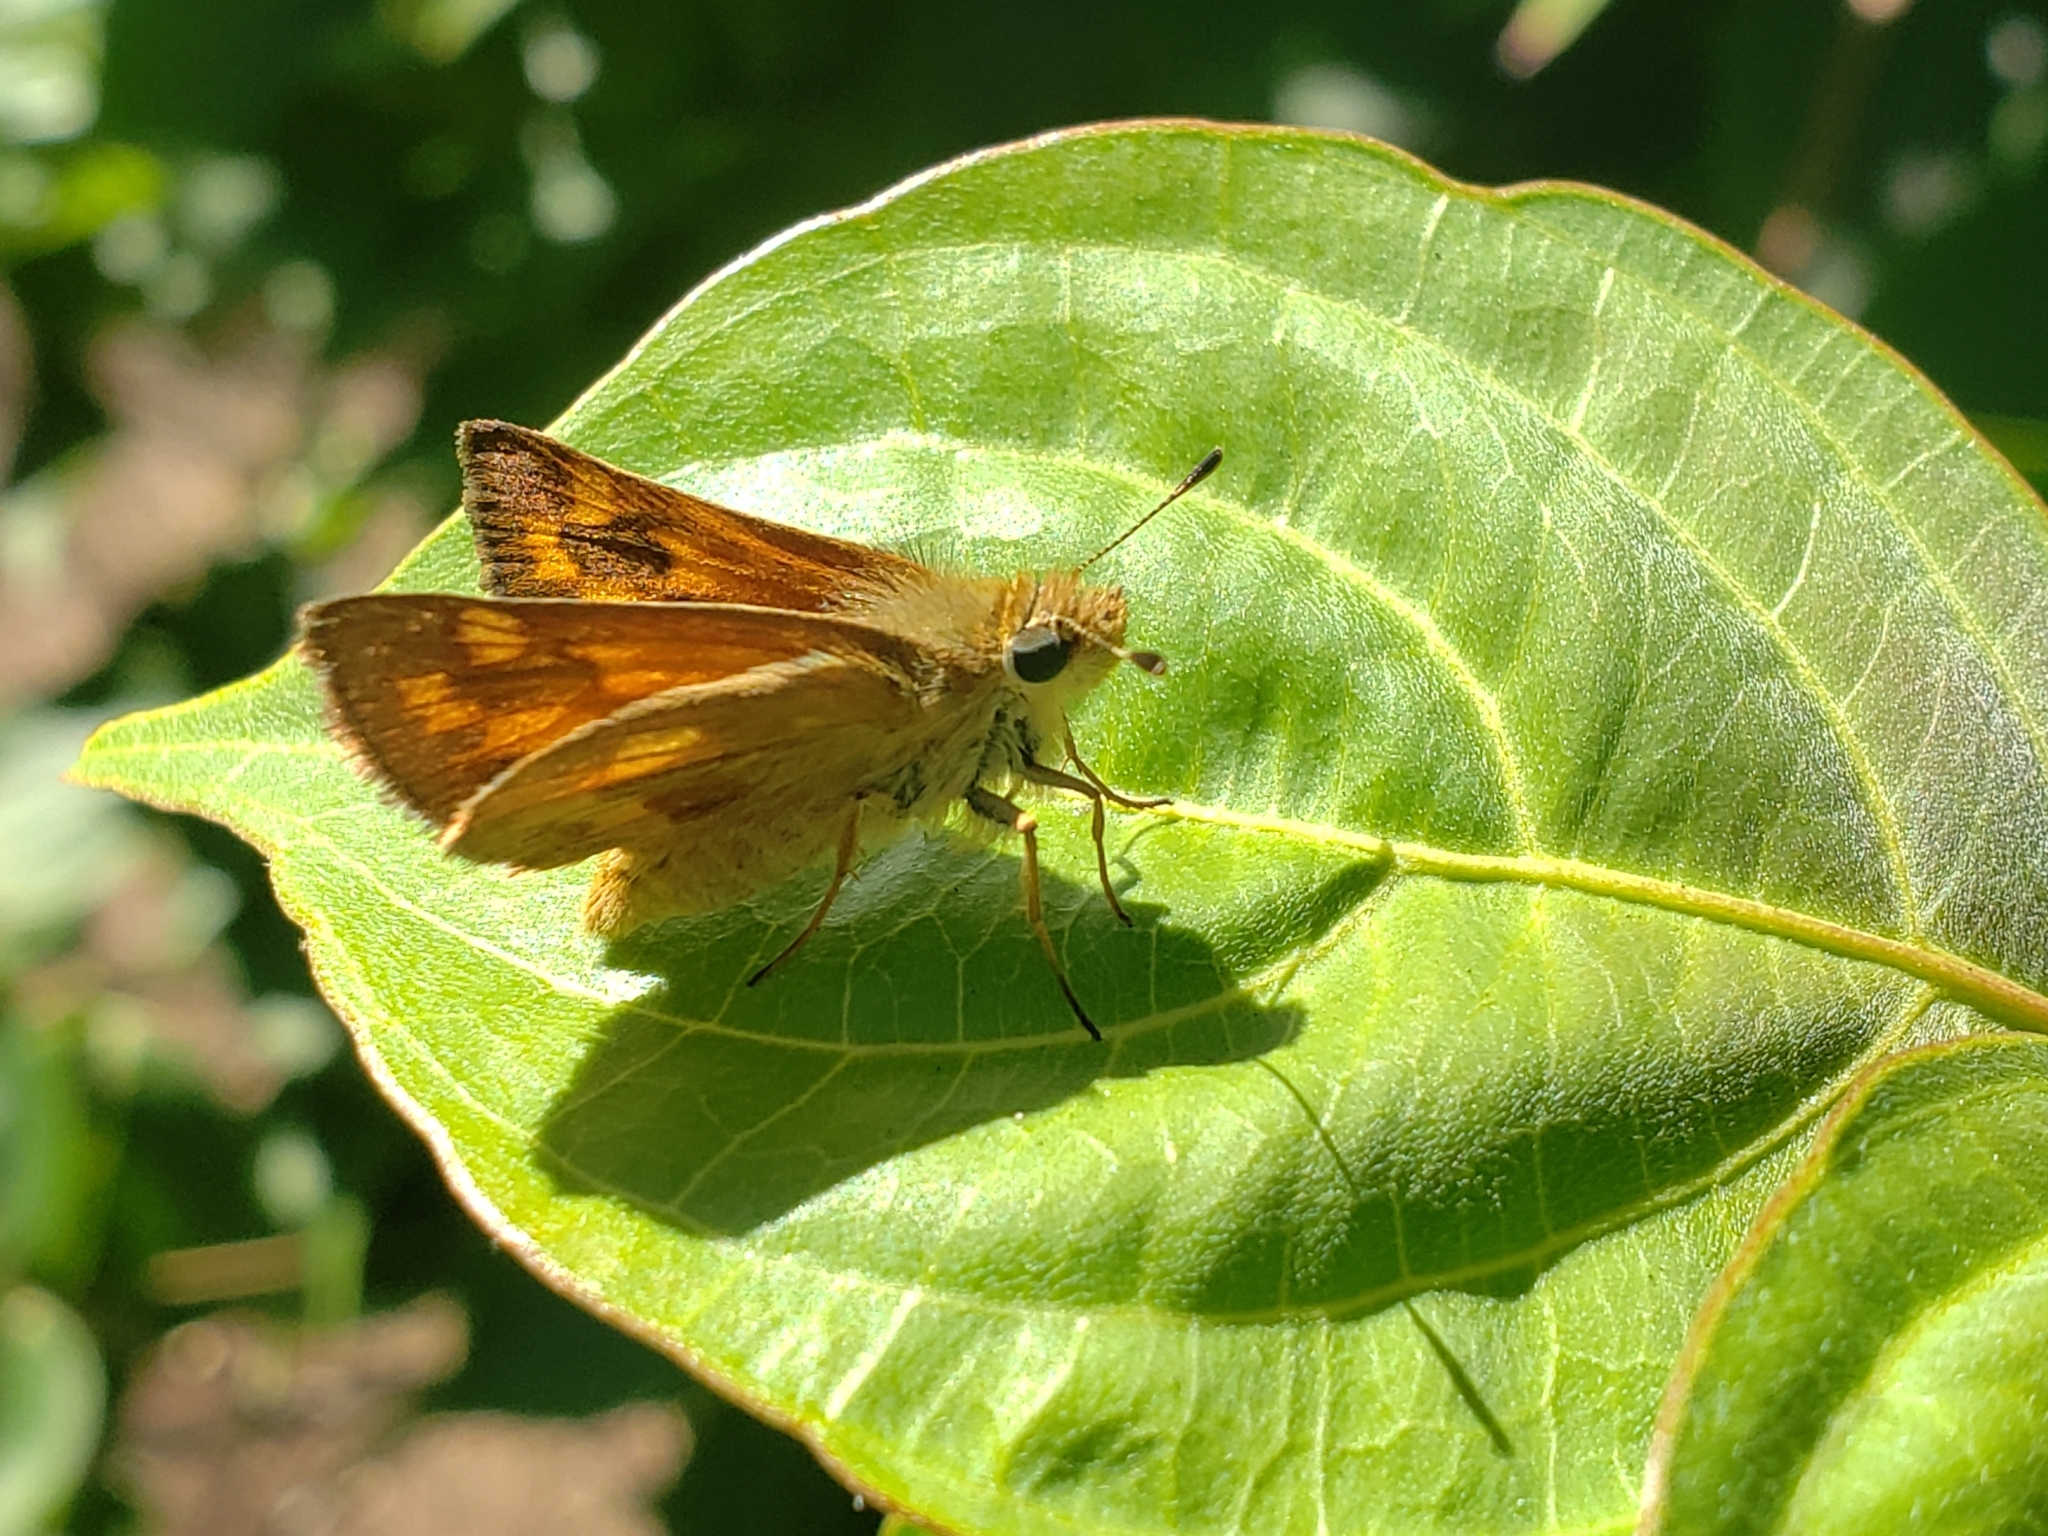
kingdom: Animalia
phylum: Arthropoda
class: Insecta
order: Lepidoptera
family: Hesperiidae
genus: Ochlodes
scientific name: Ochlodes sylvanoides
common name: Woodland skipper
